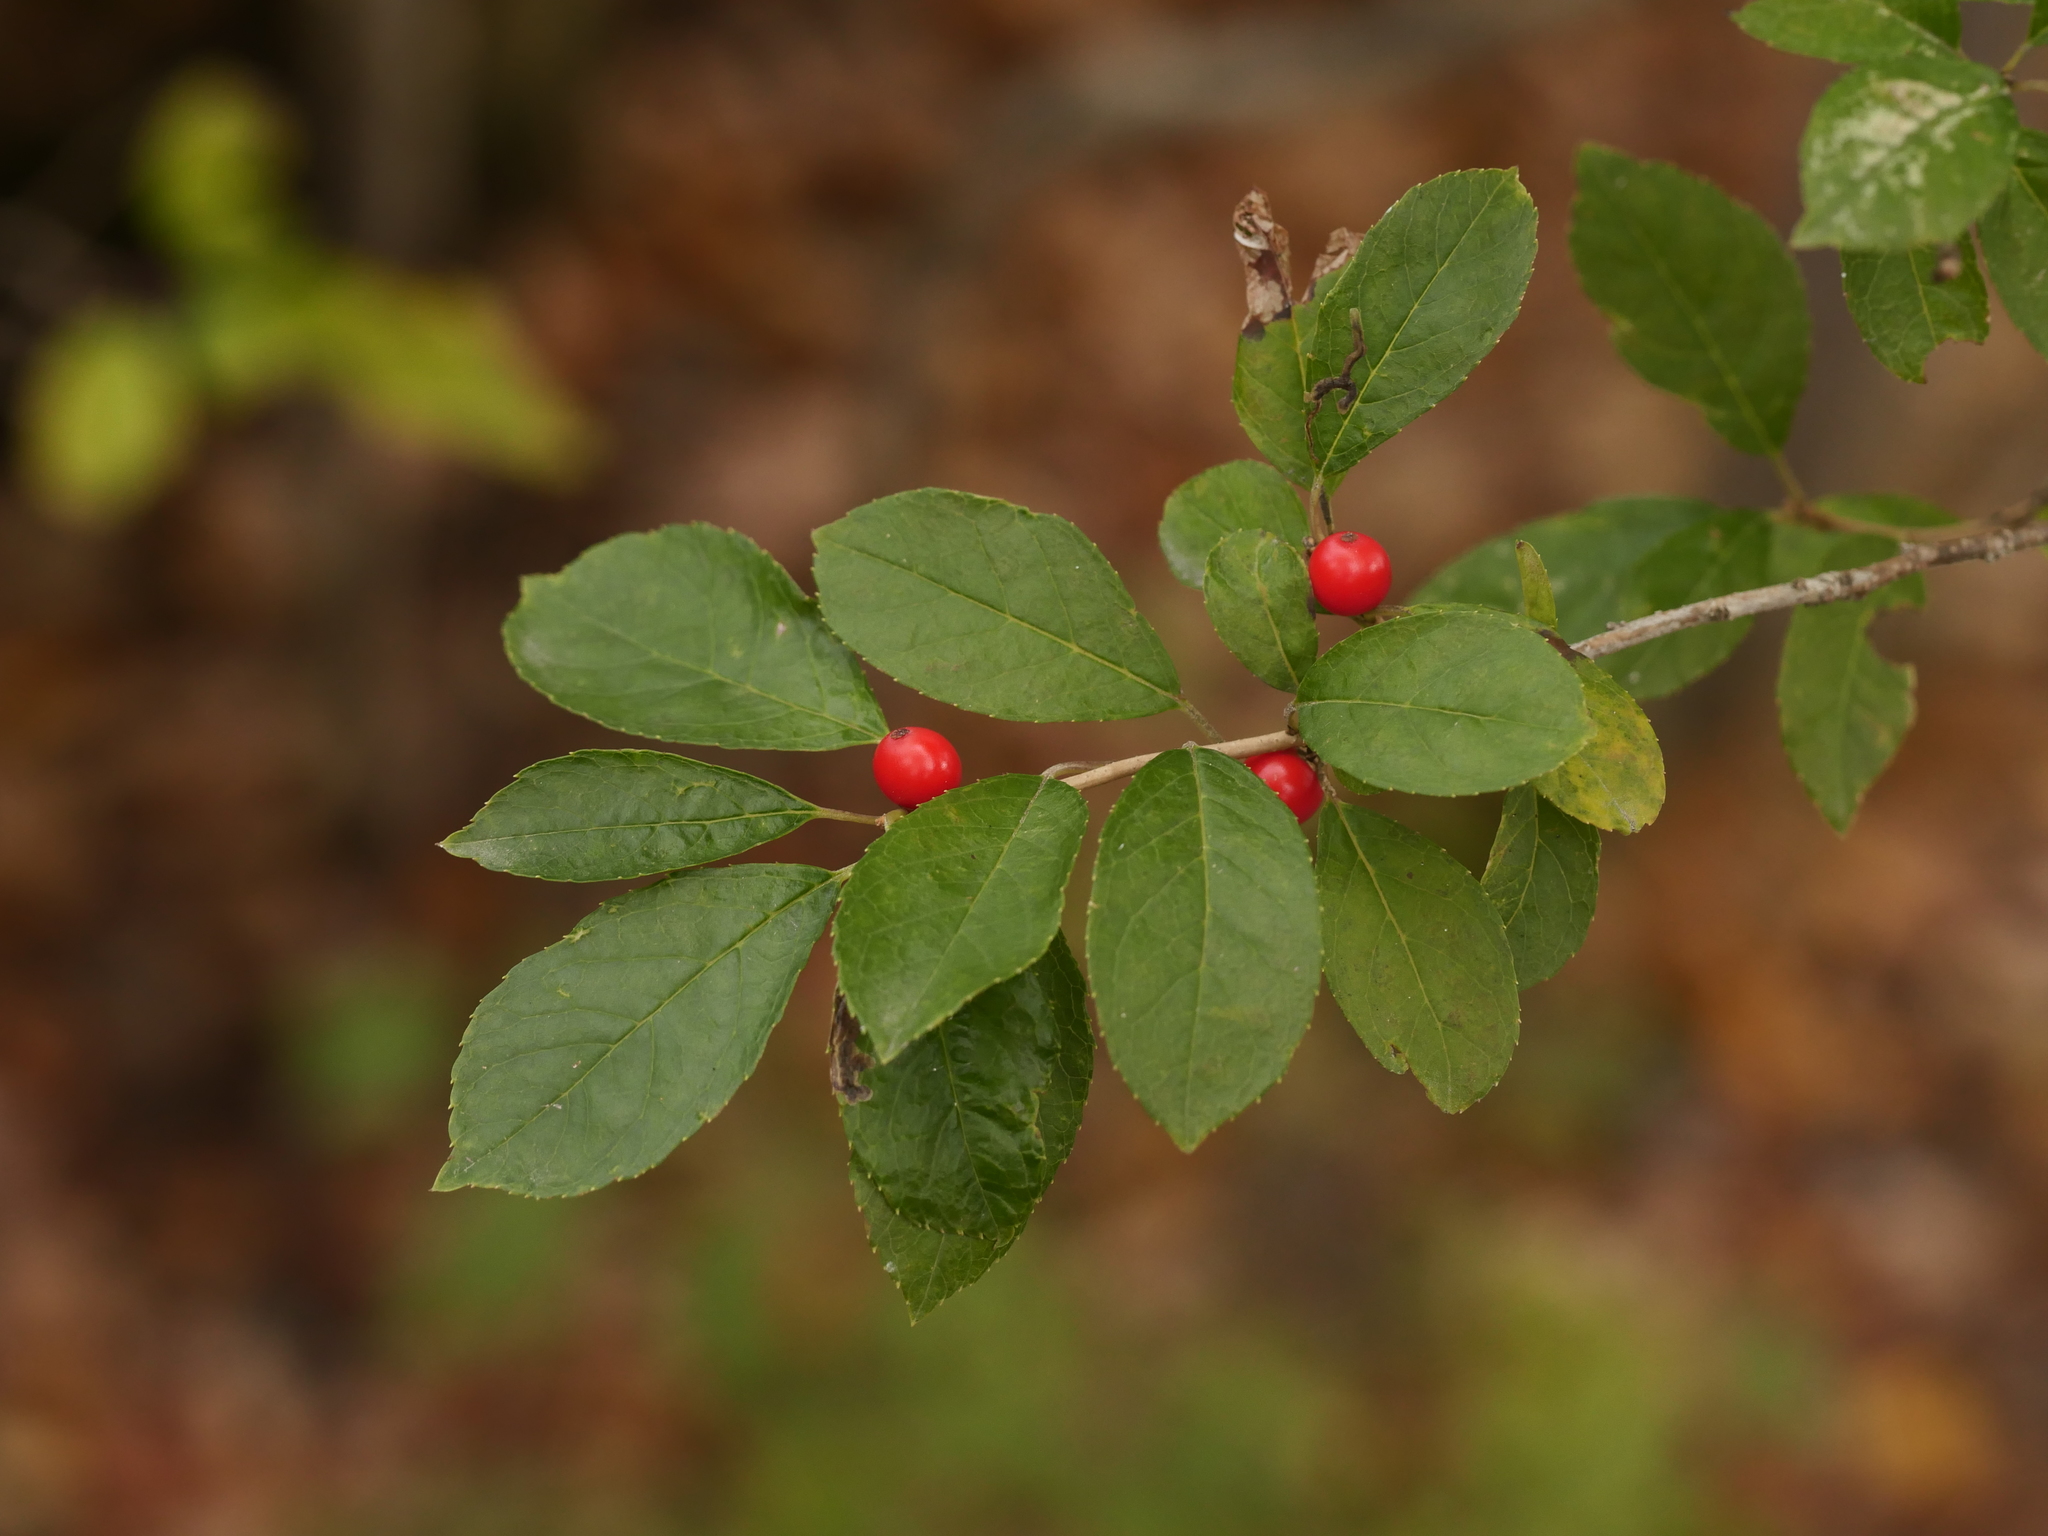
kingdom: Plantae
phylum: Tracheophyta
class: Magnoliopsida
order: Aquifoliales
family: Aquifoliaceae
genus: Ilex
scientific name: Ilex verticillata
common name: Virginia winterberry
